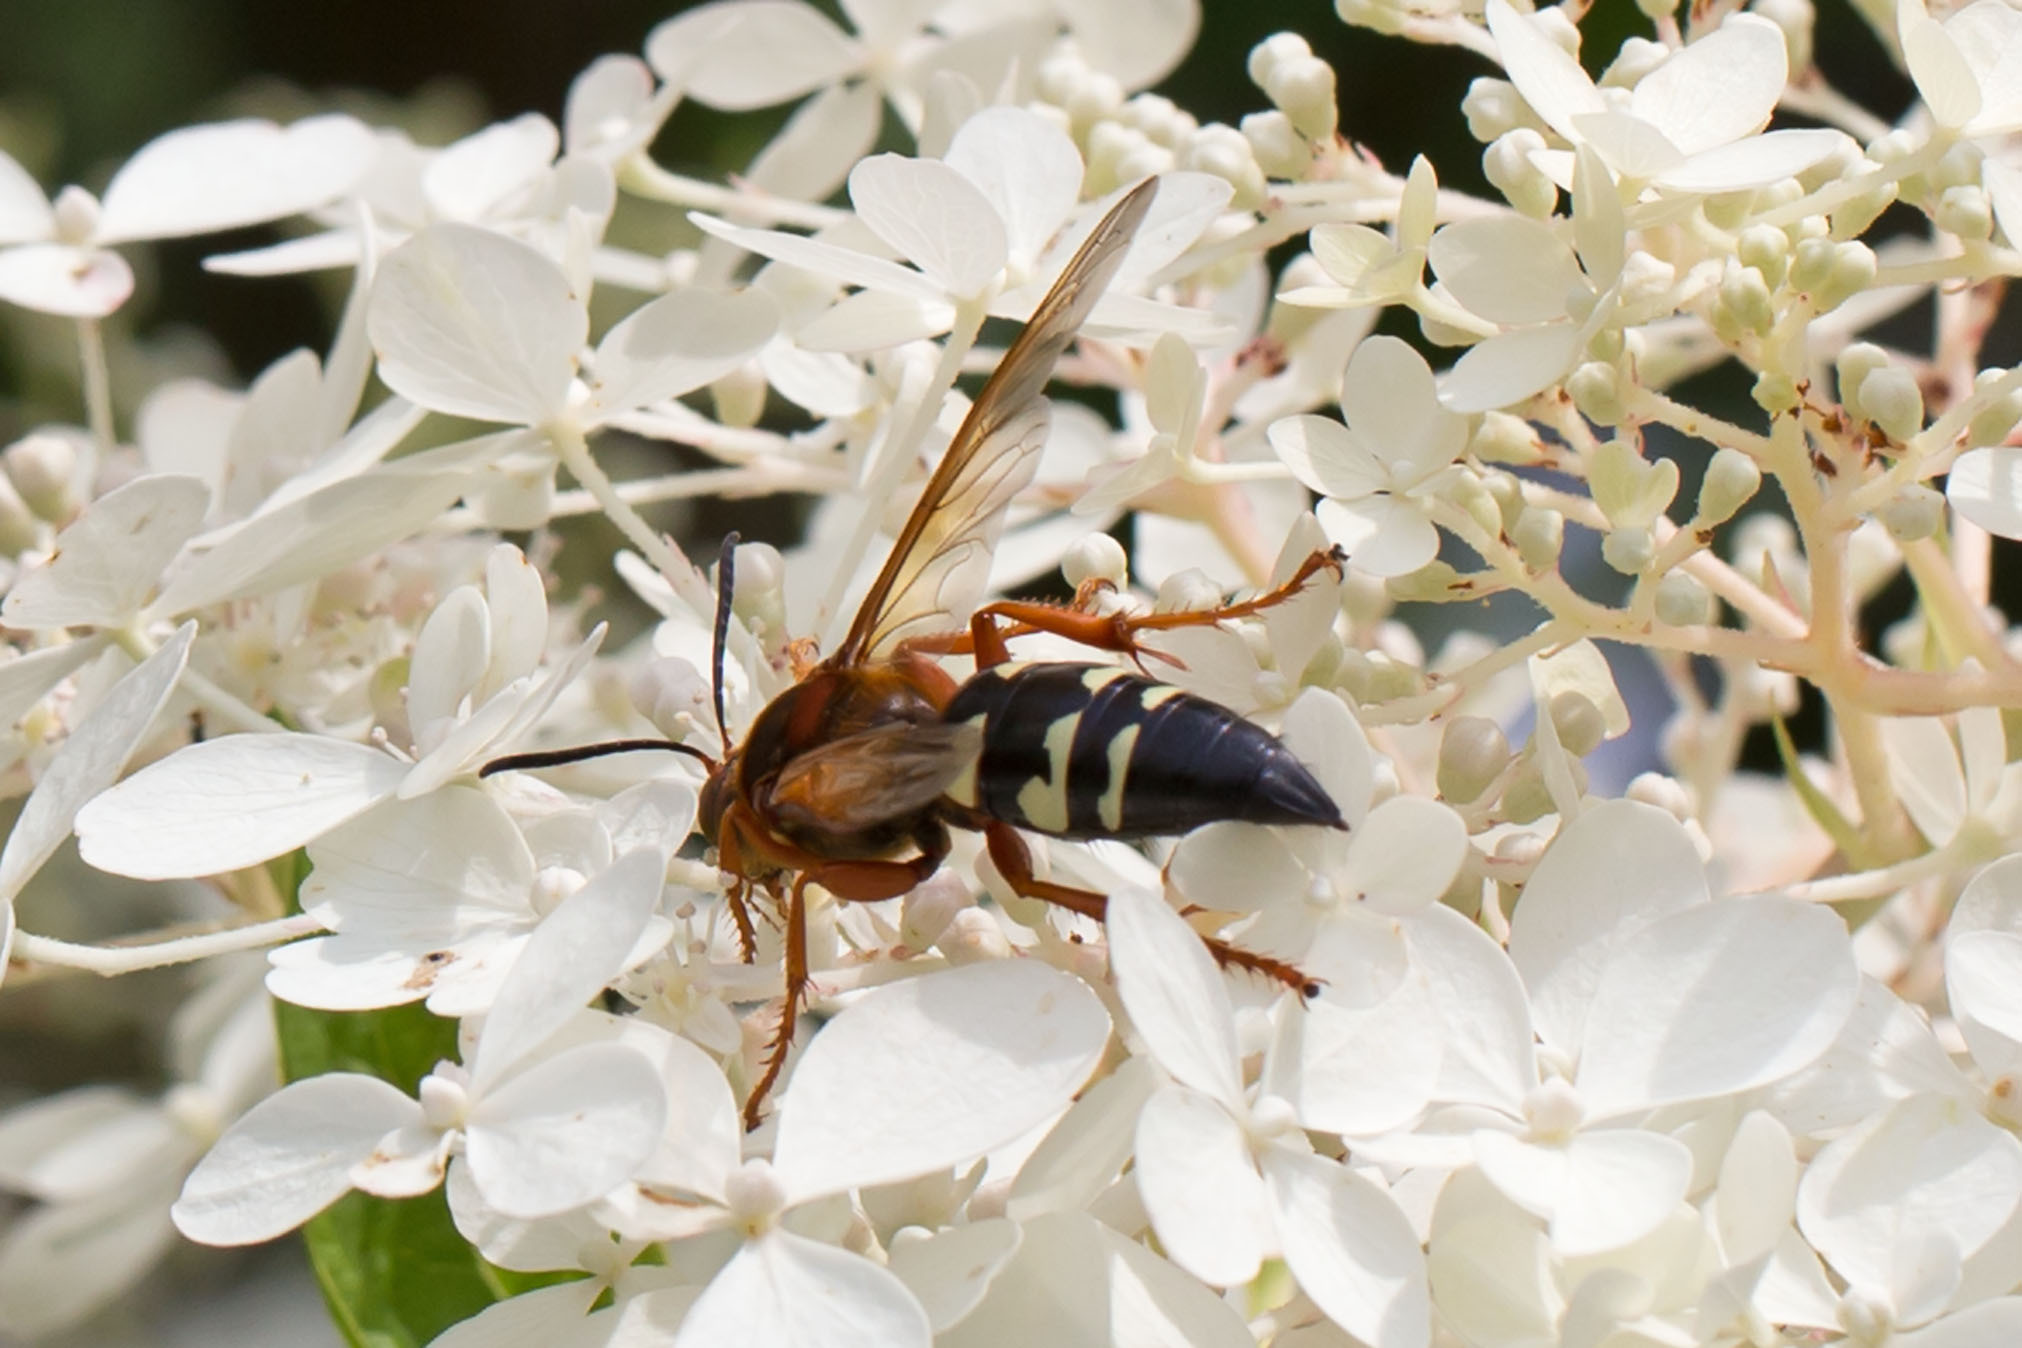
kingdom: Animalia
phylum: Arthropoda
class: Insecta
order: Hymenoptera
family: Crabronidae
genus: Sphecius
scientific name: Sphecius speciosus
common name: Cicada killer
